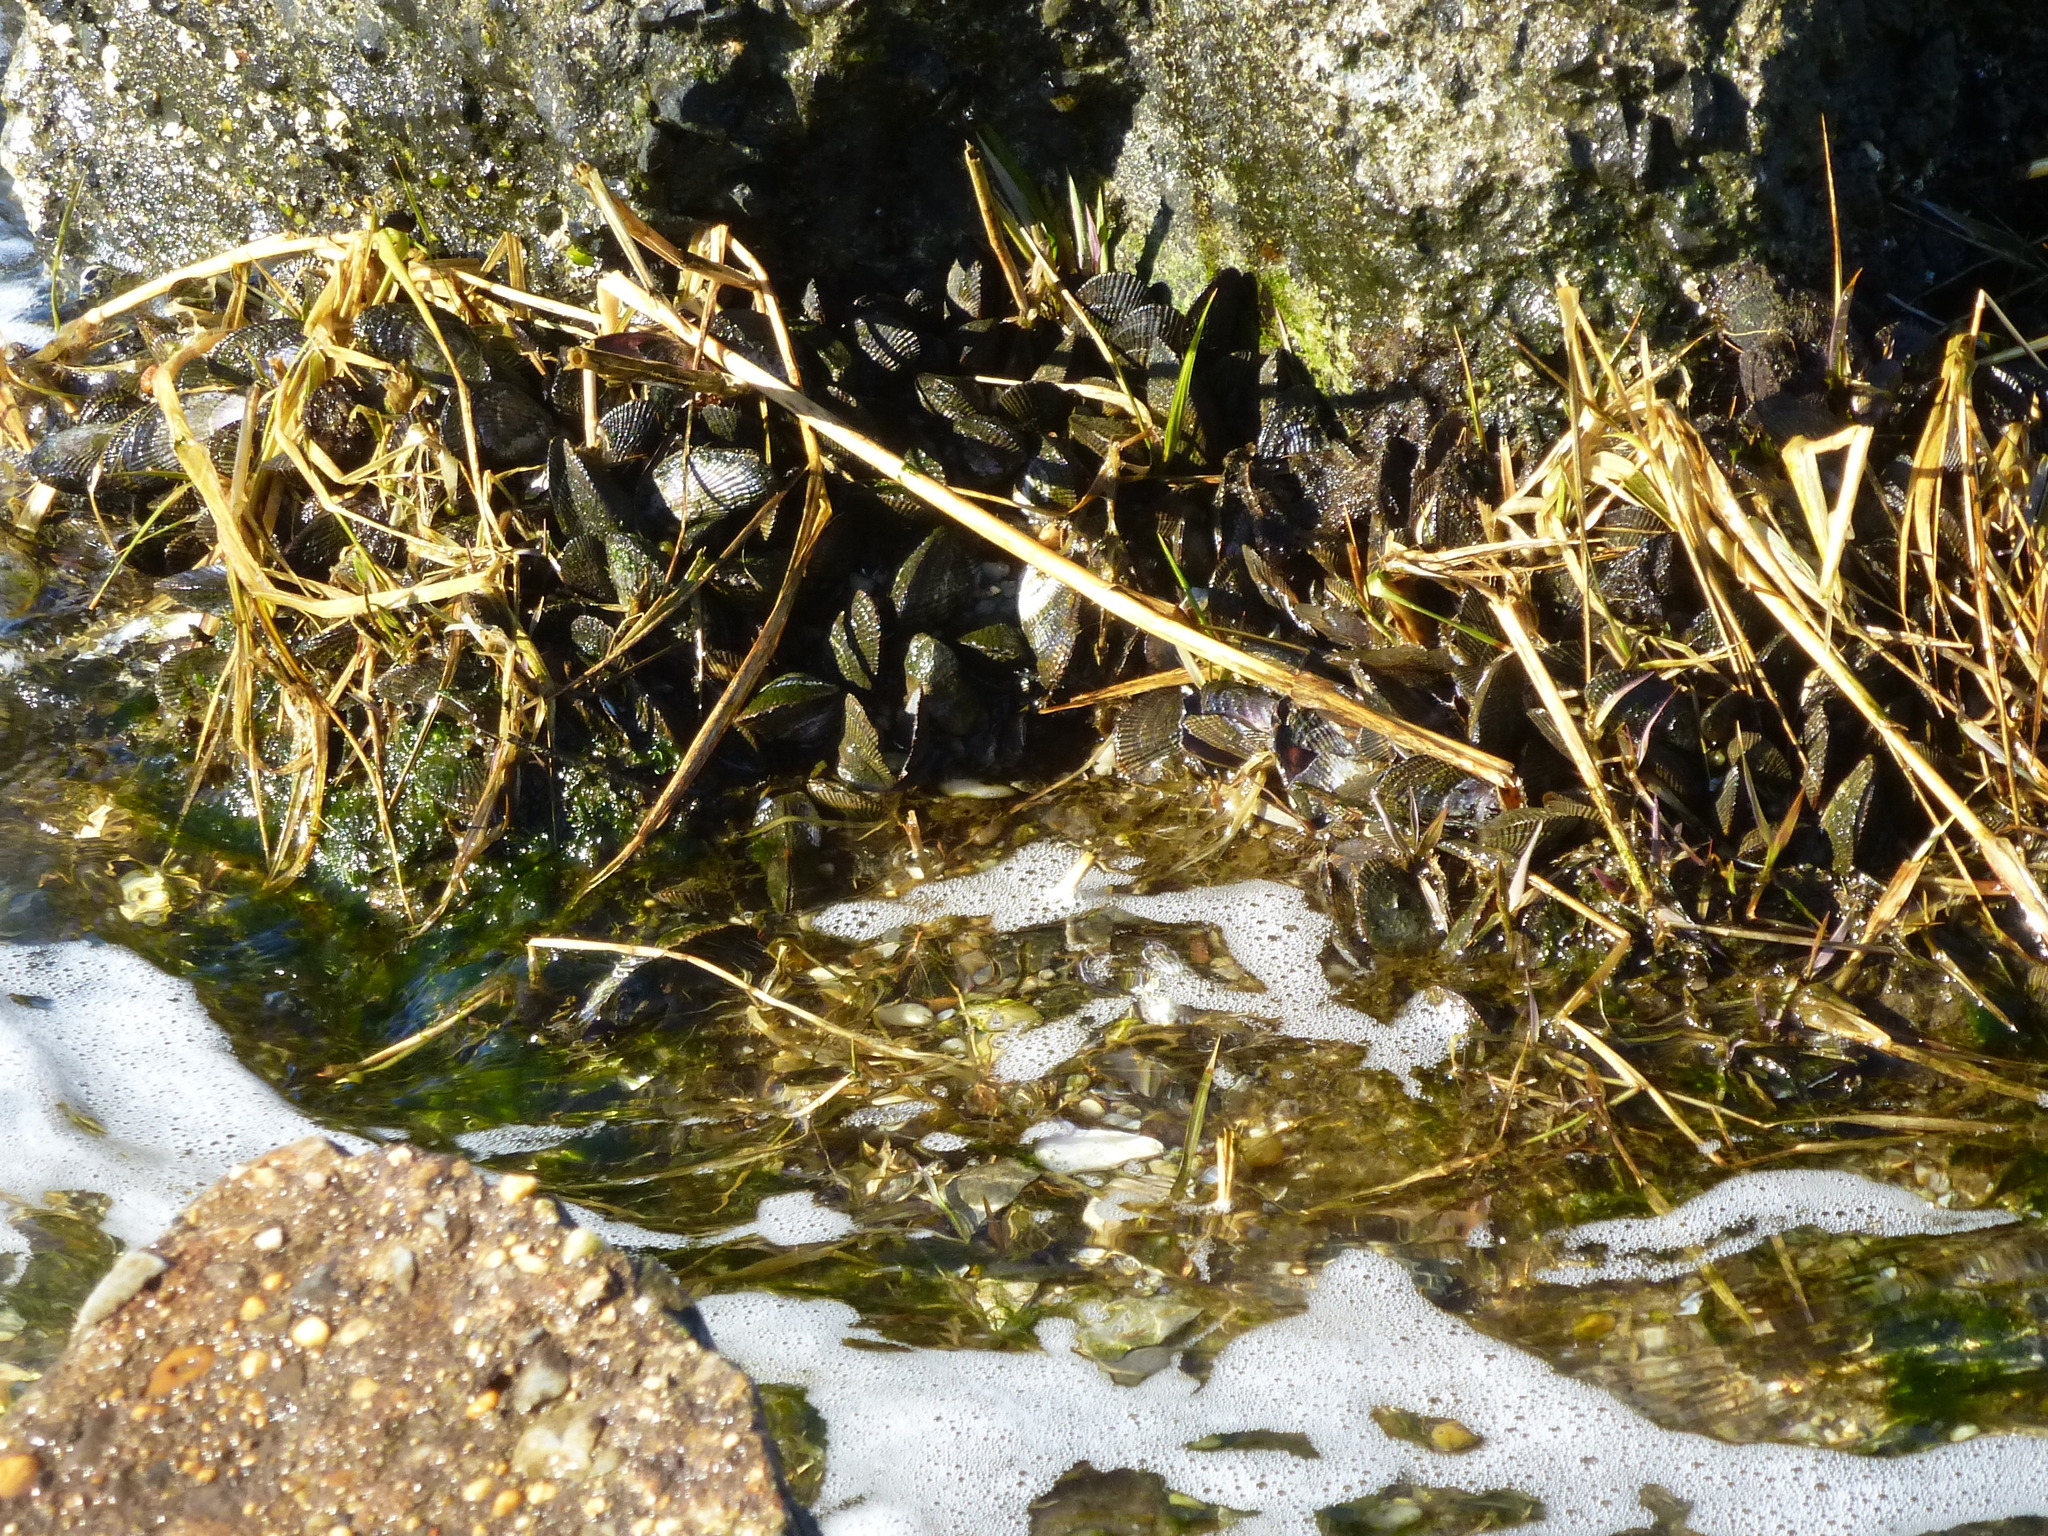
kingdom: Animalia
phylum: Mollusca
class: Bivalvia
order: Mytilida
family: Mytilidae
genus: Geukensia
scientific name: Geukensia demissa
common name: Ribbed mussel
